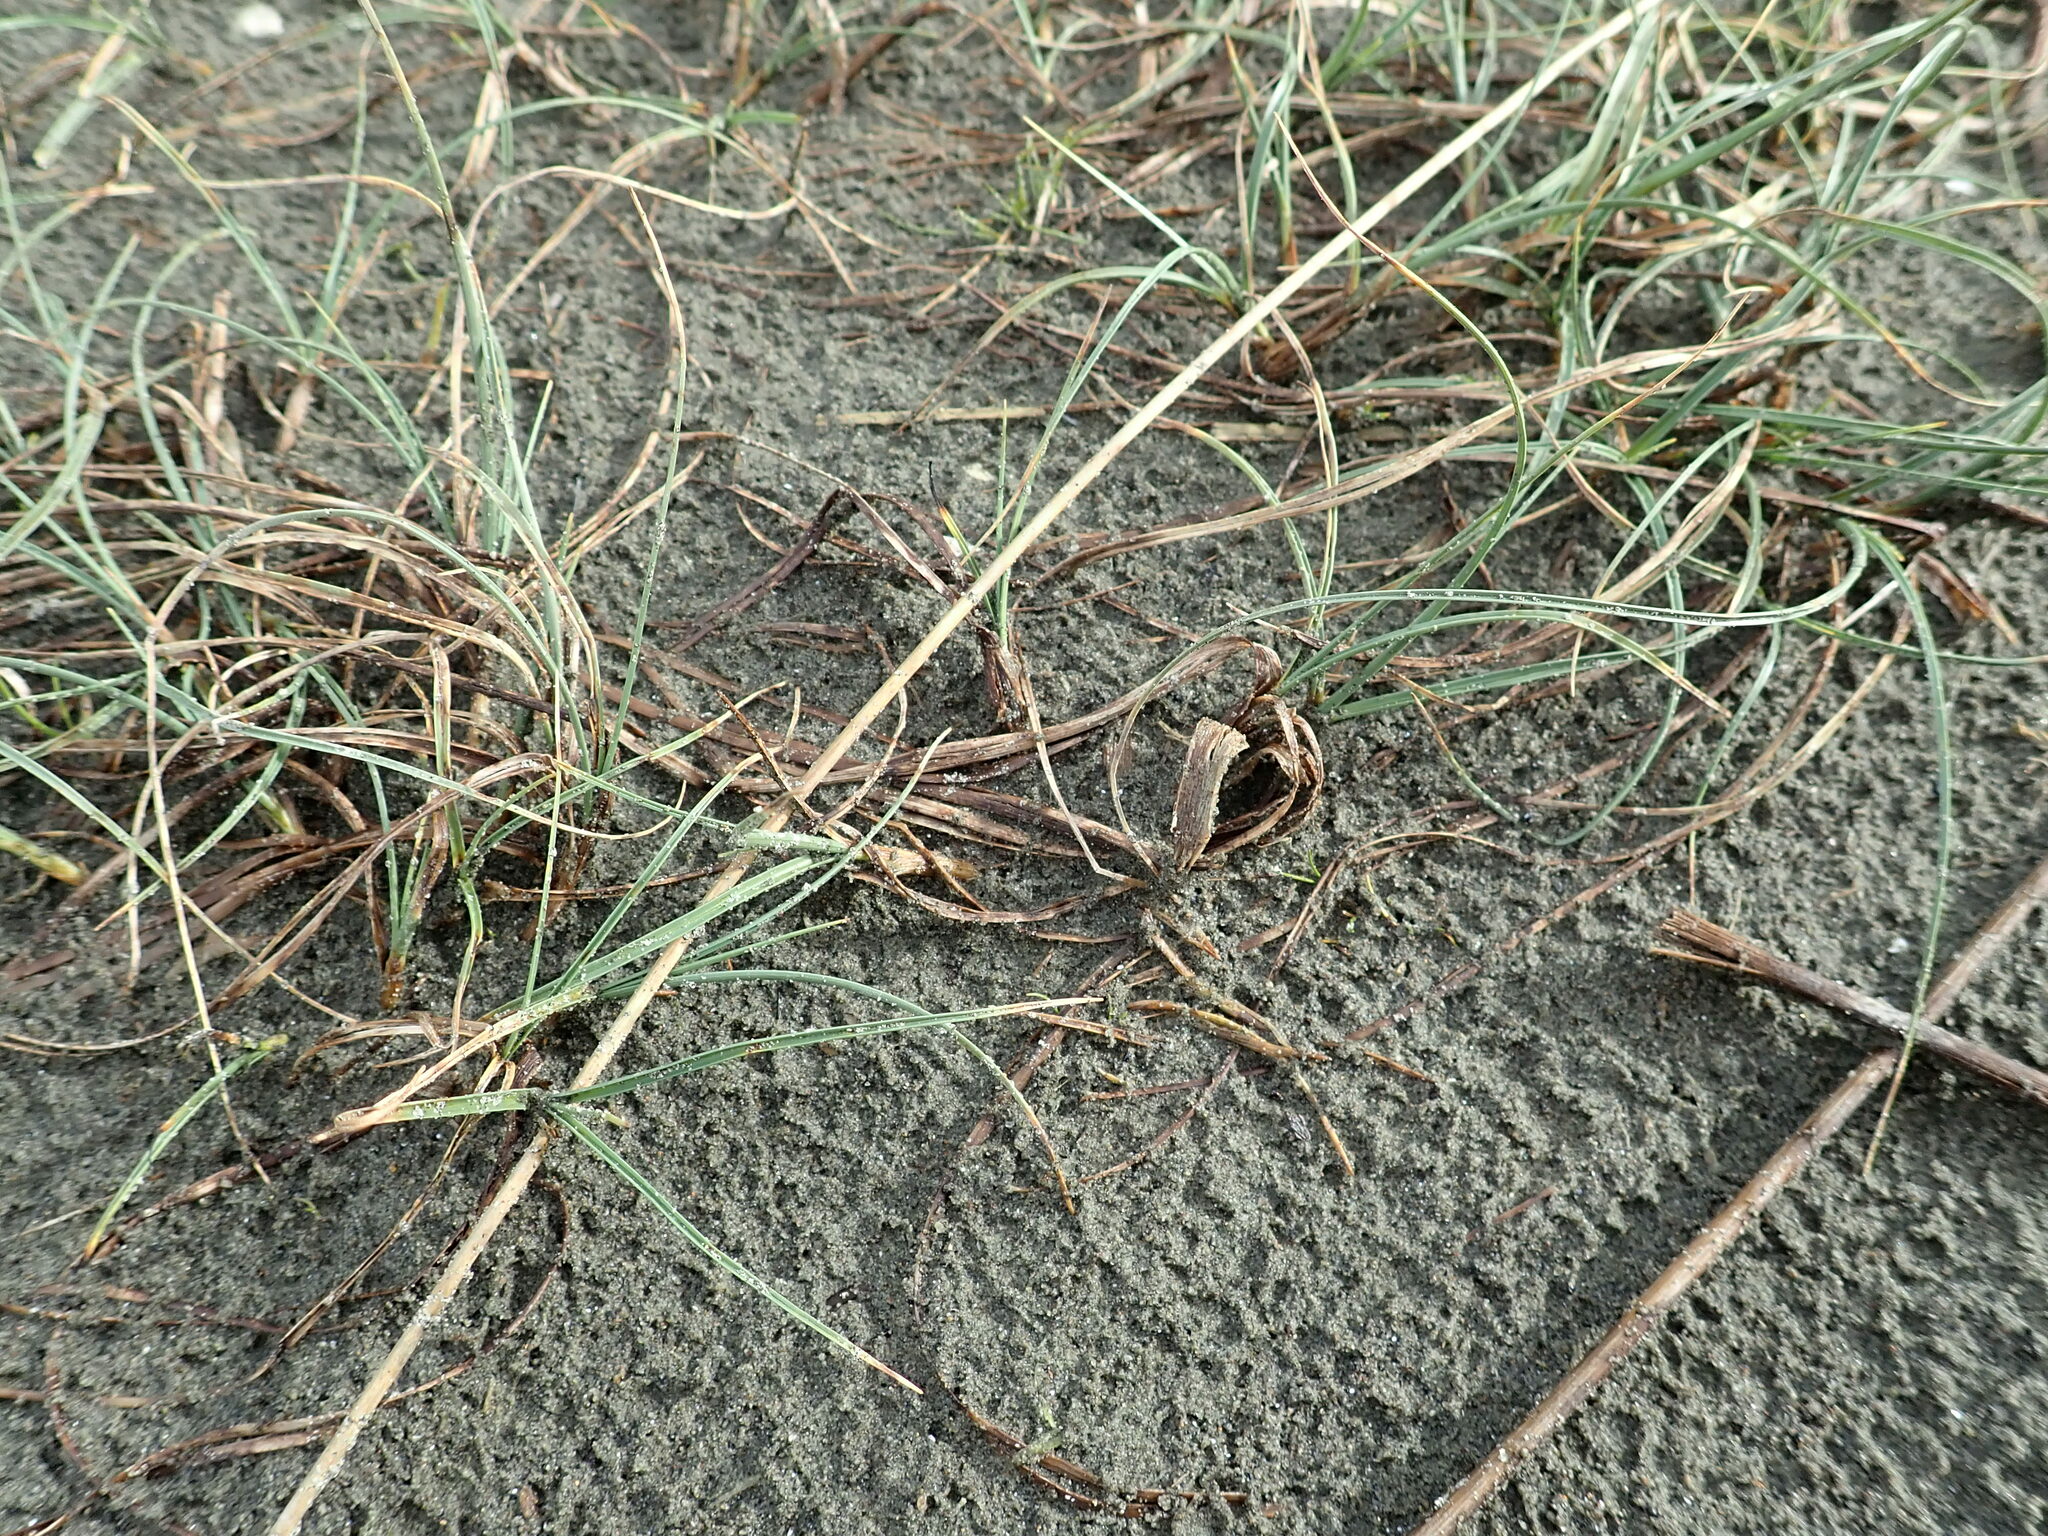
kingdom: Plantae
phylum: Tracheophyta
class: Liliopsida
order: Poales
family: Cyperaceae
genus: Carex
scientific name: Carex pumila
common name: Dwarf sedge
